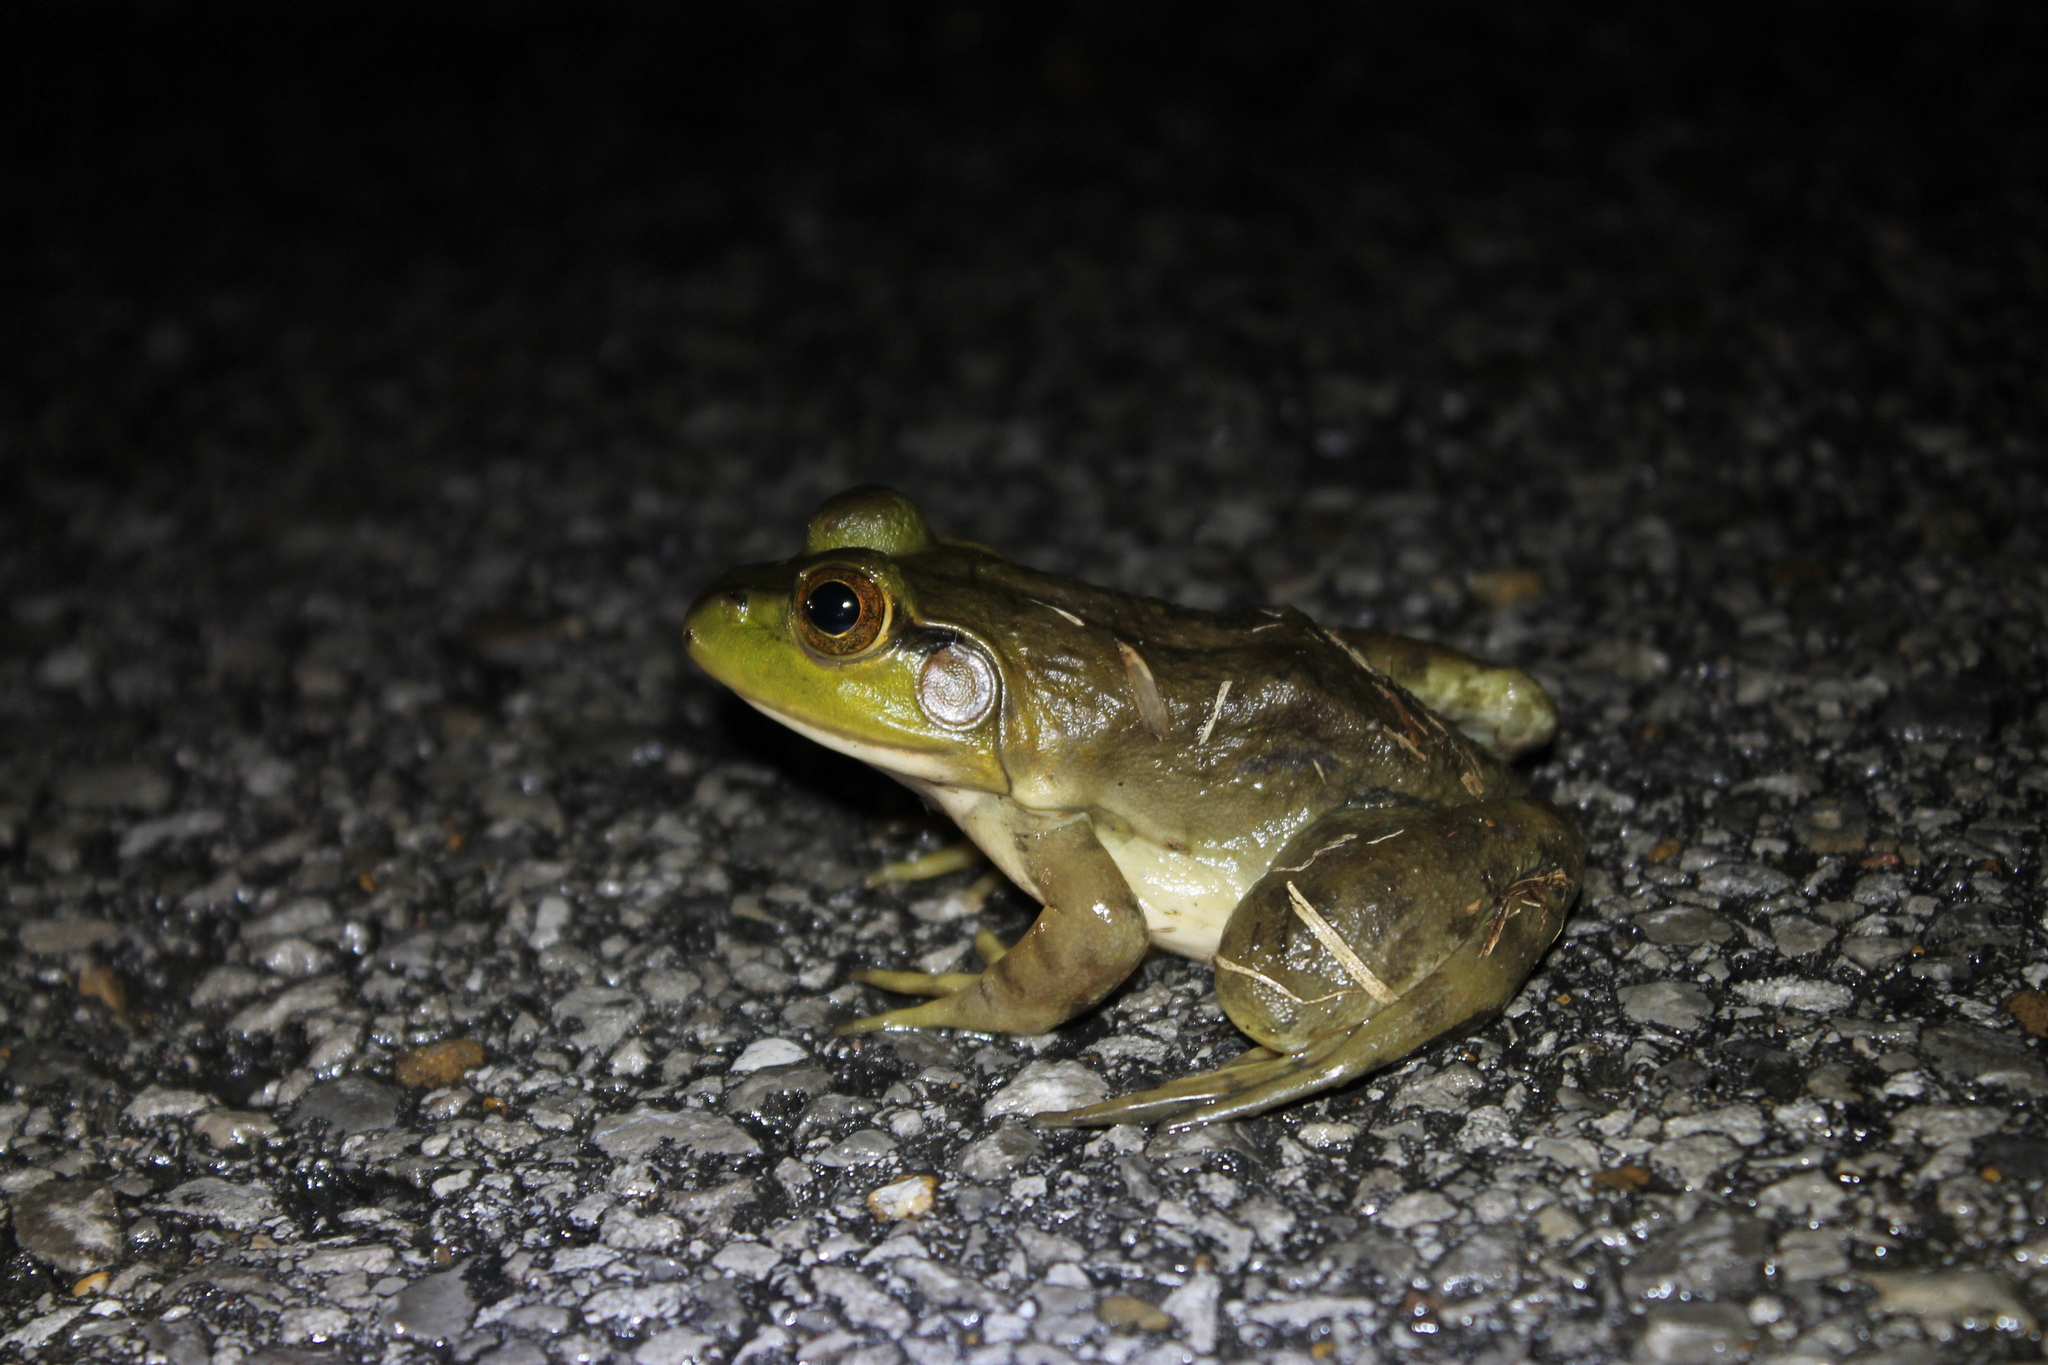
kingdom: Animalia
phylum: Chordata
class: Amphibia
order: Anura
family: Ranidae
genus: Lithobates
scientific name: Lithobates catesbeianus
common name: American bullfrog
